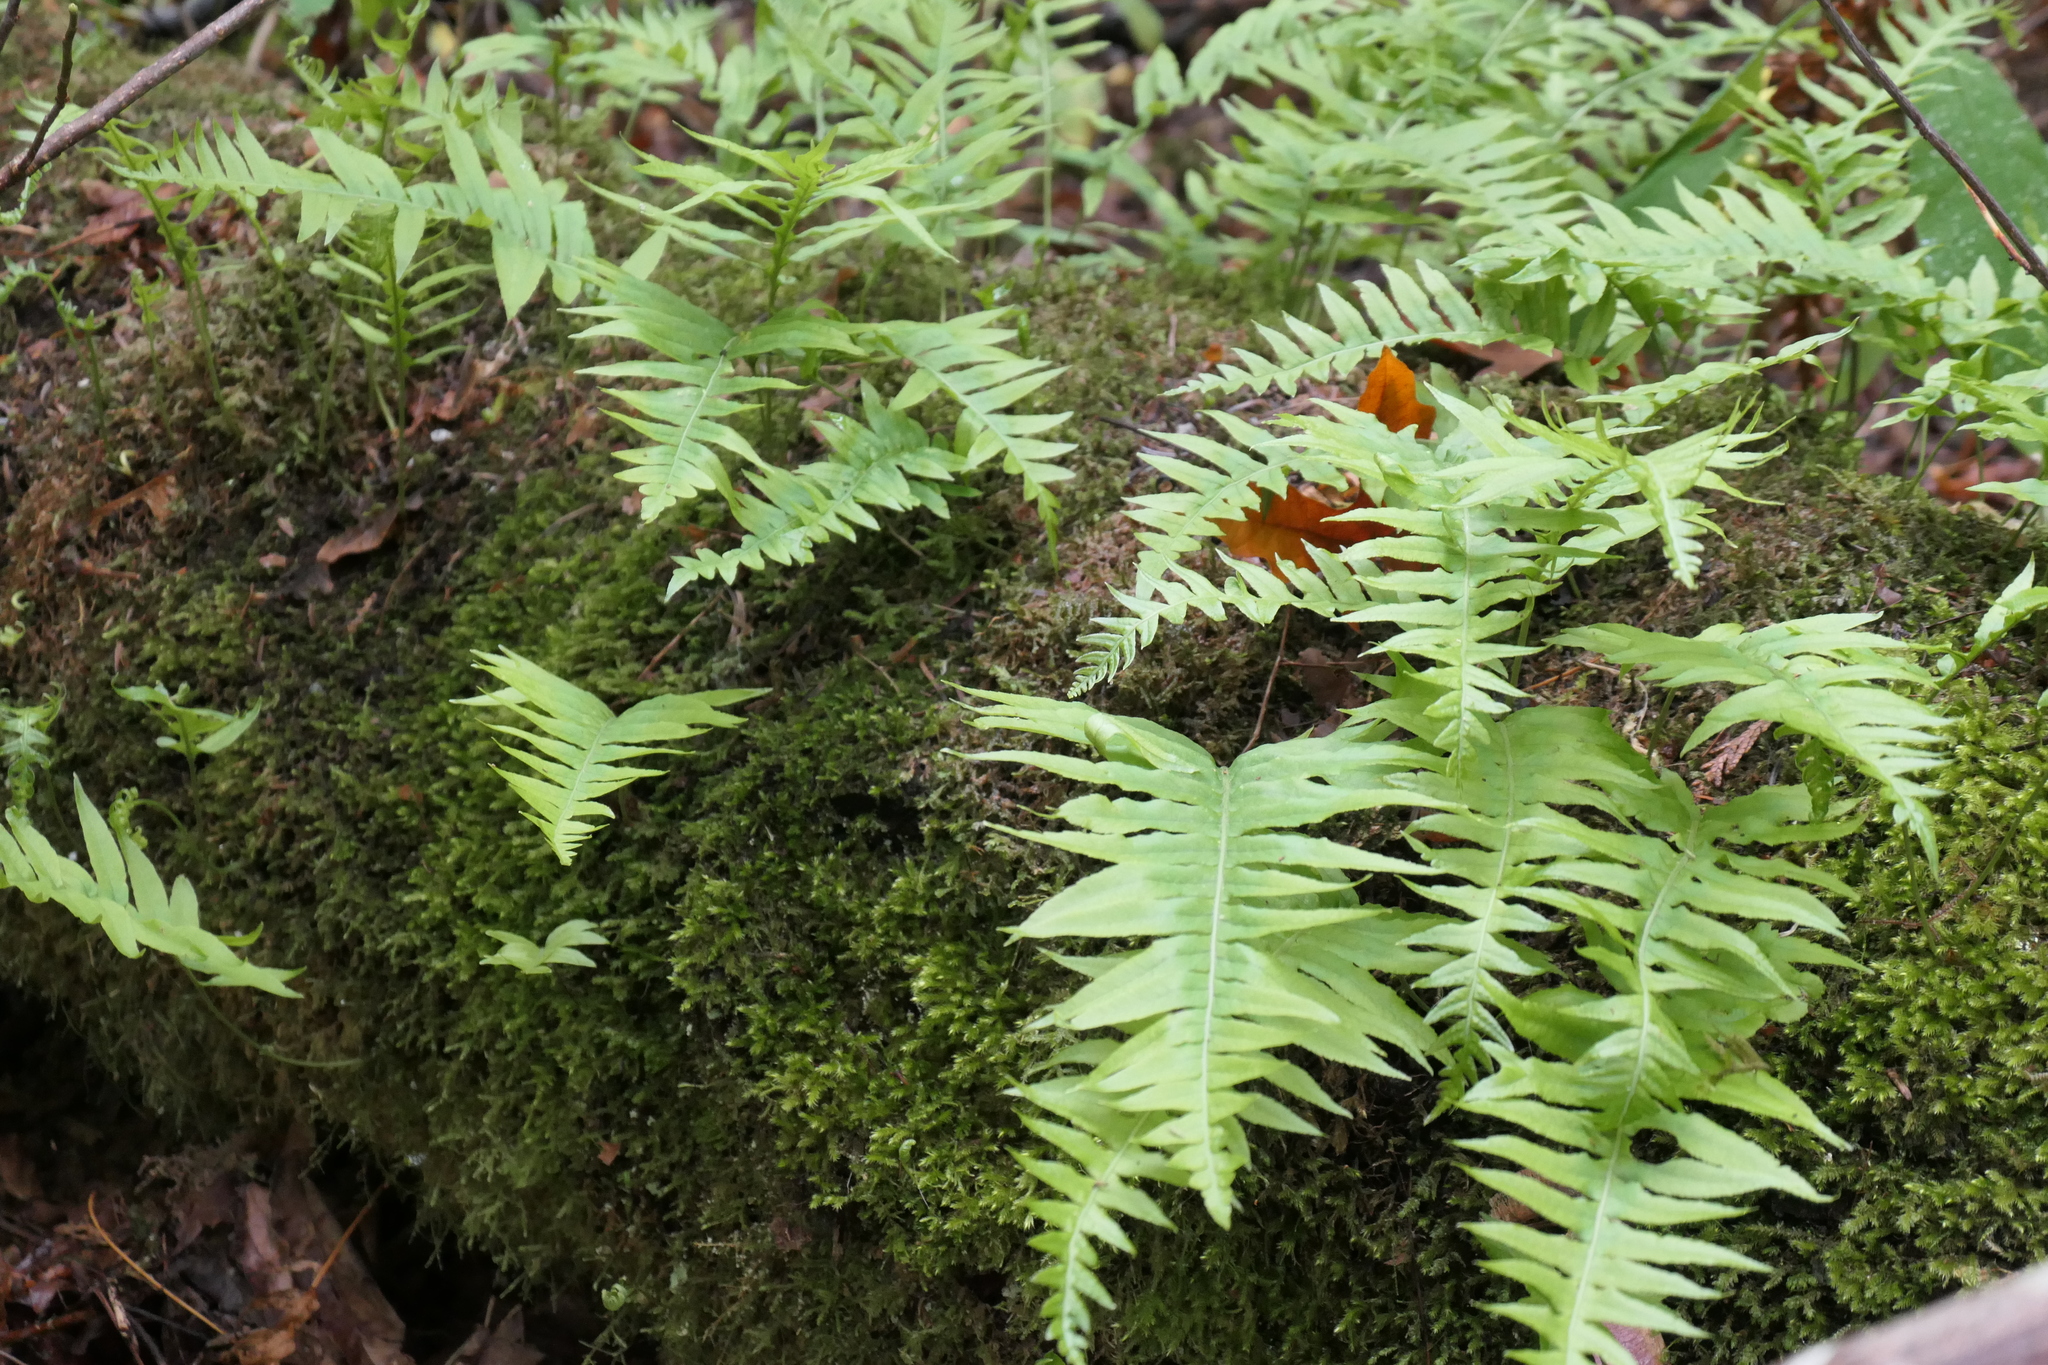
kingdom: Plantae
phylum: Tracheophyta
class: Polypodiopsida
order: Polypodiales
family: Polypodiaceae
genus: Polypodium
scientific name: Polypodium glycyrrhiza
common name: Licorice fern
